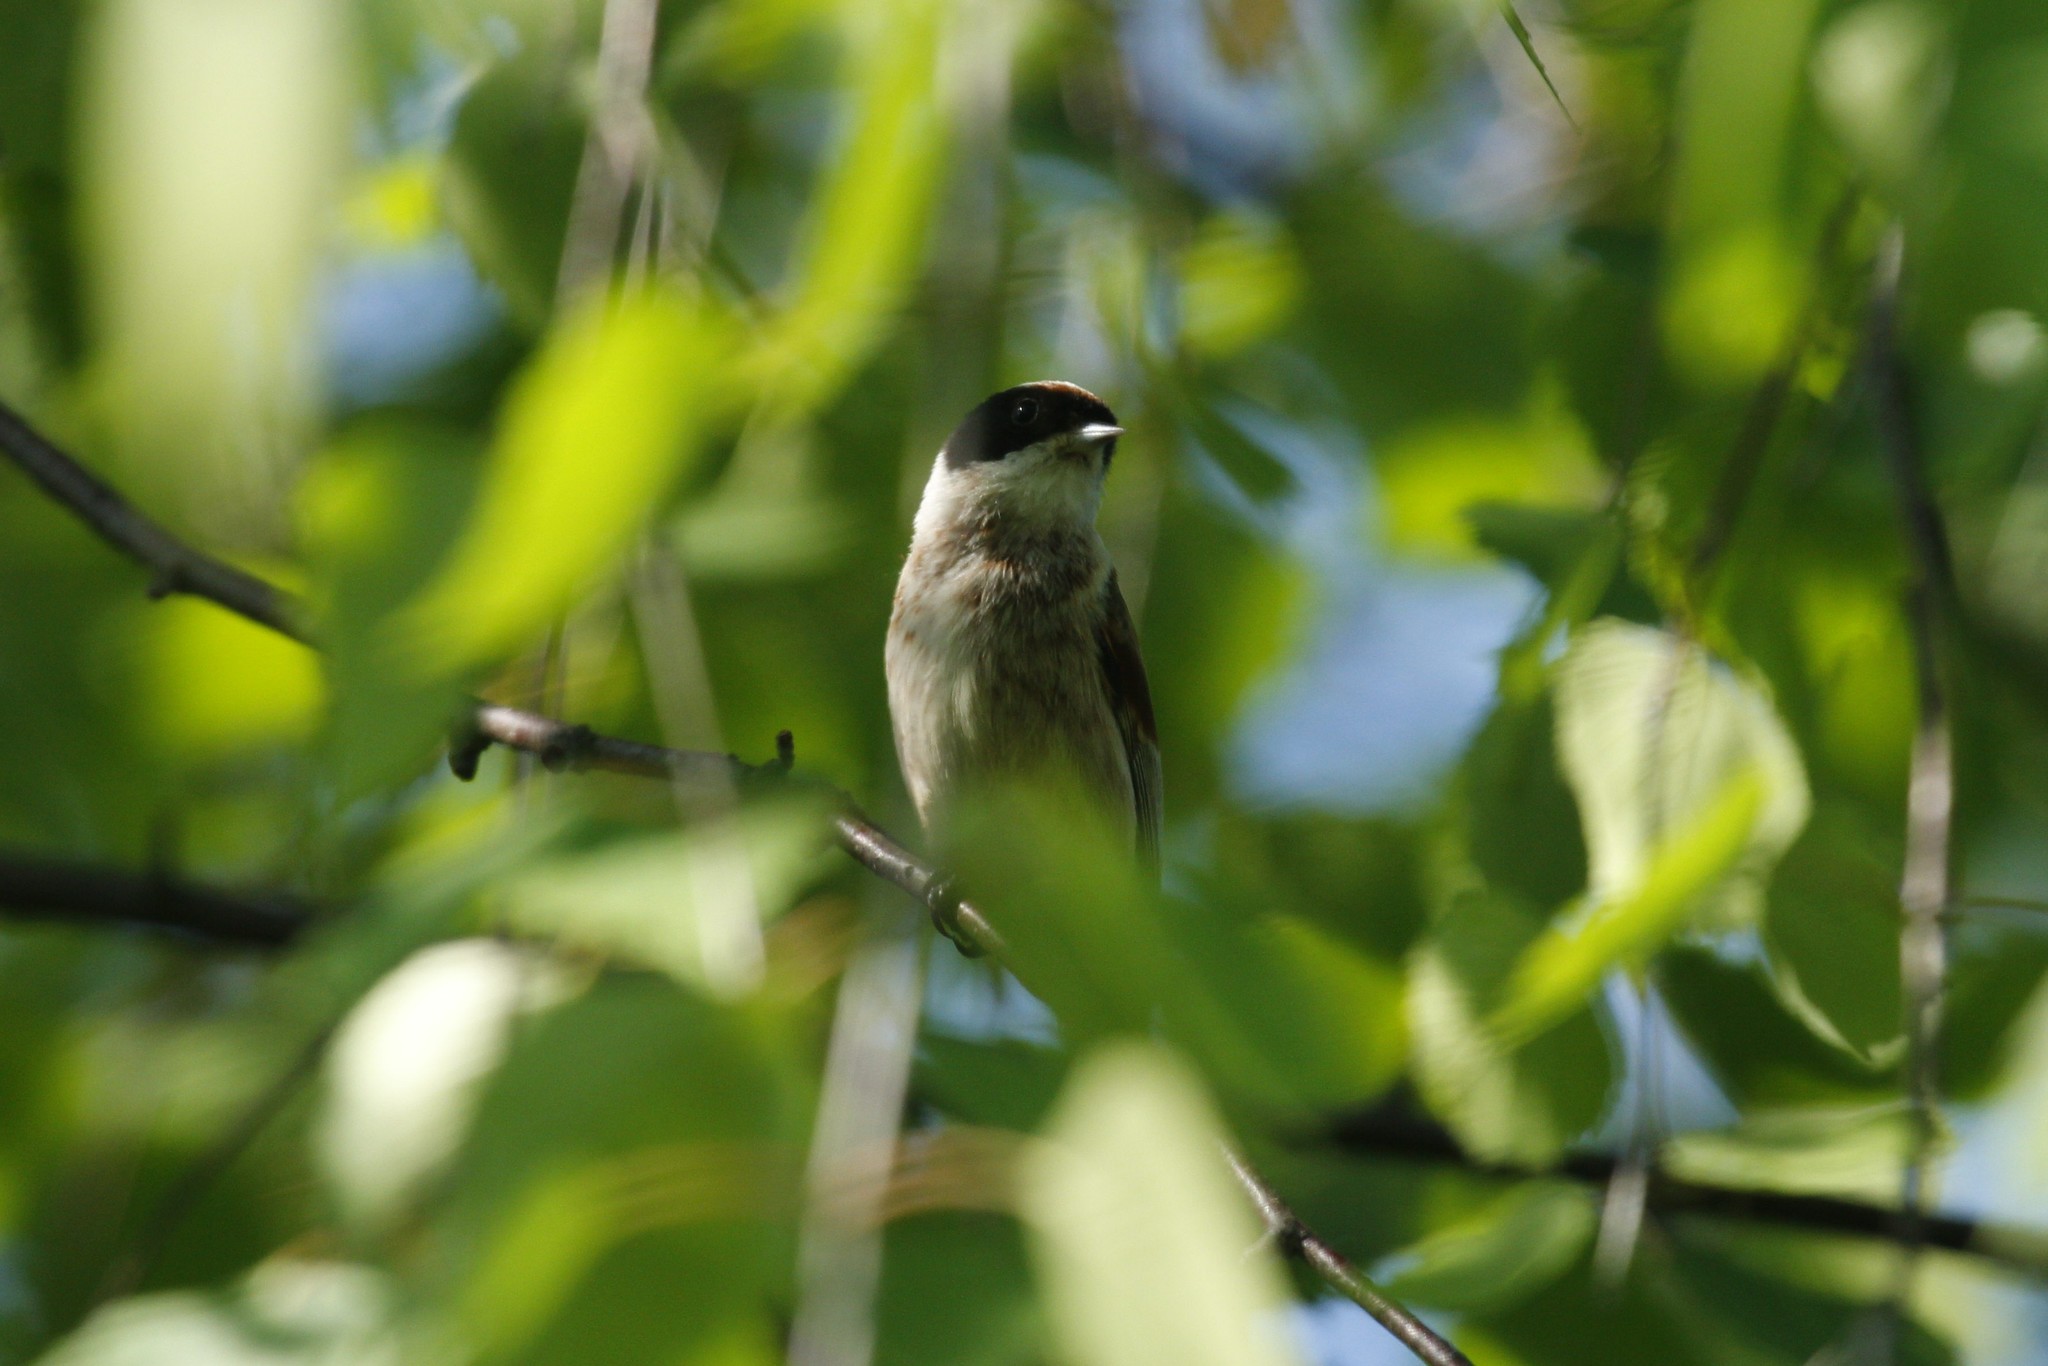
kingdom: Animalia
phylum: Chordata
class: Aves
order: Passeriformes
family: Remizidae
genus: Remiz
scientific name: Remiz pendulinus
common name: Eurasian penduline tit
